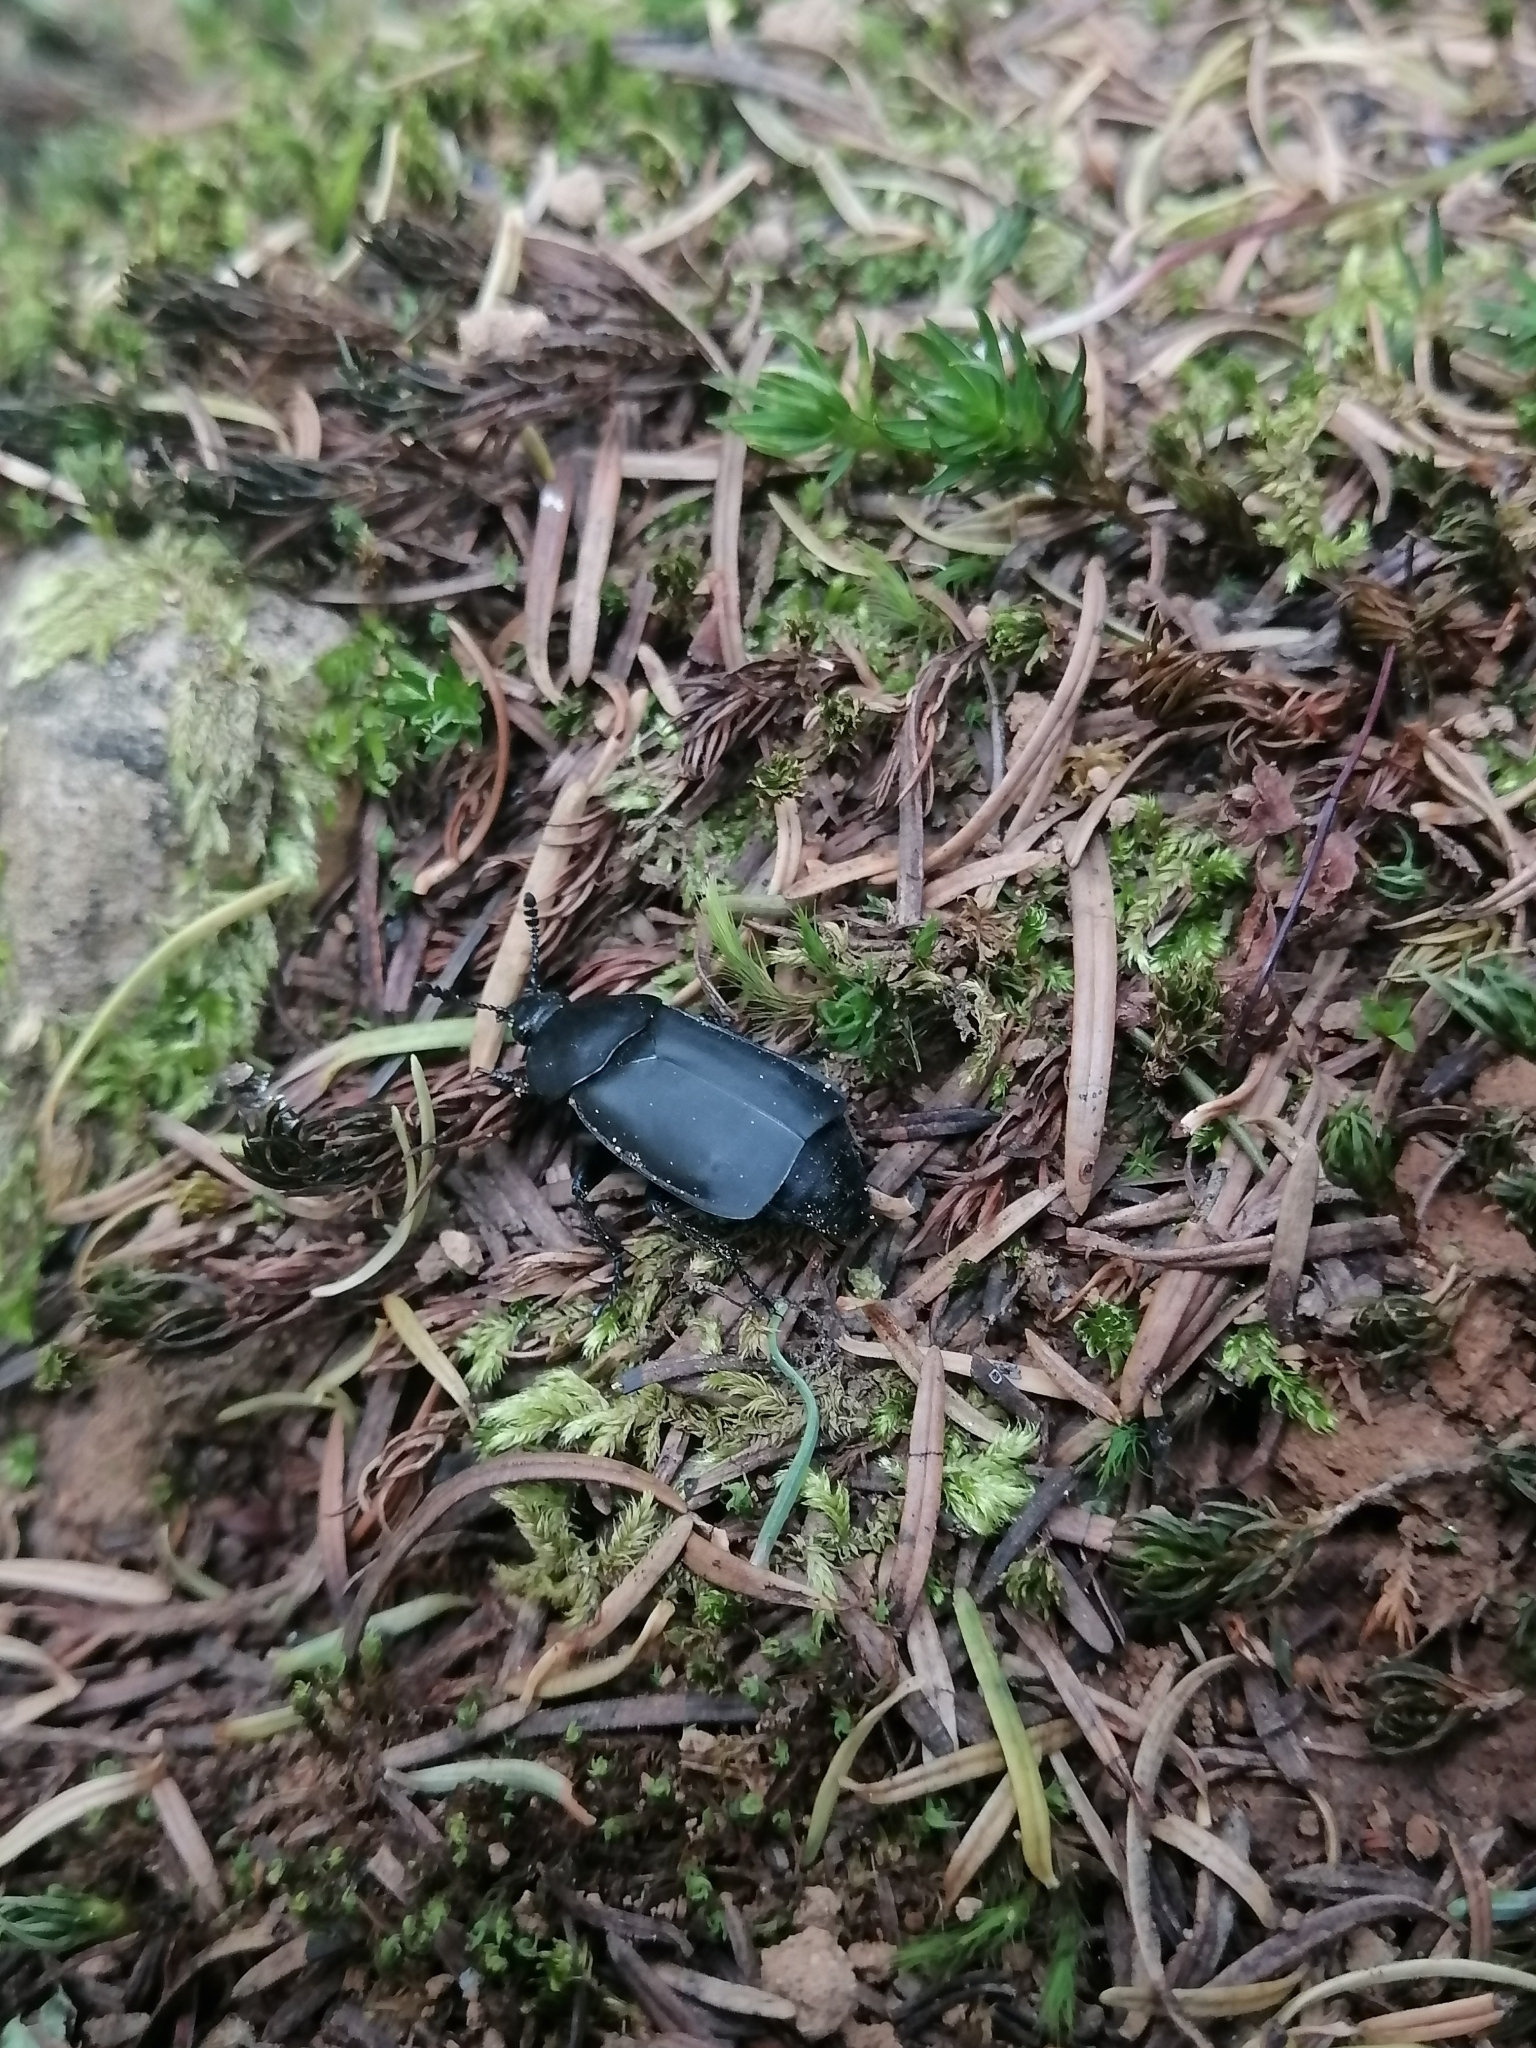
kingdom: Animalia
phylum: Arthropoda
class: Insecta
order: Coleoptera
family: Staphylinidae
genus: Thanatophilus
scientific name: Thanatophilus truncatus
